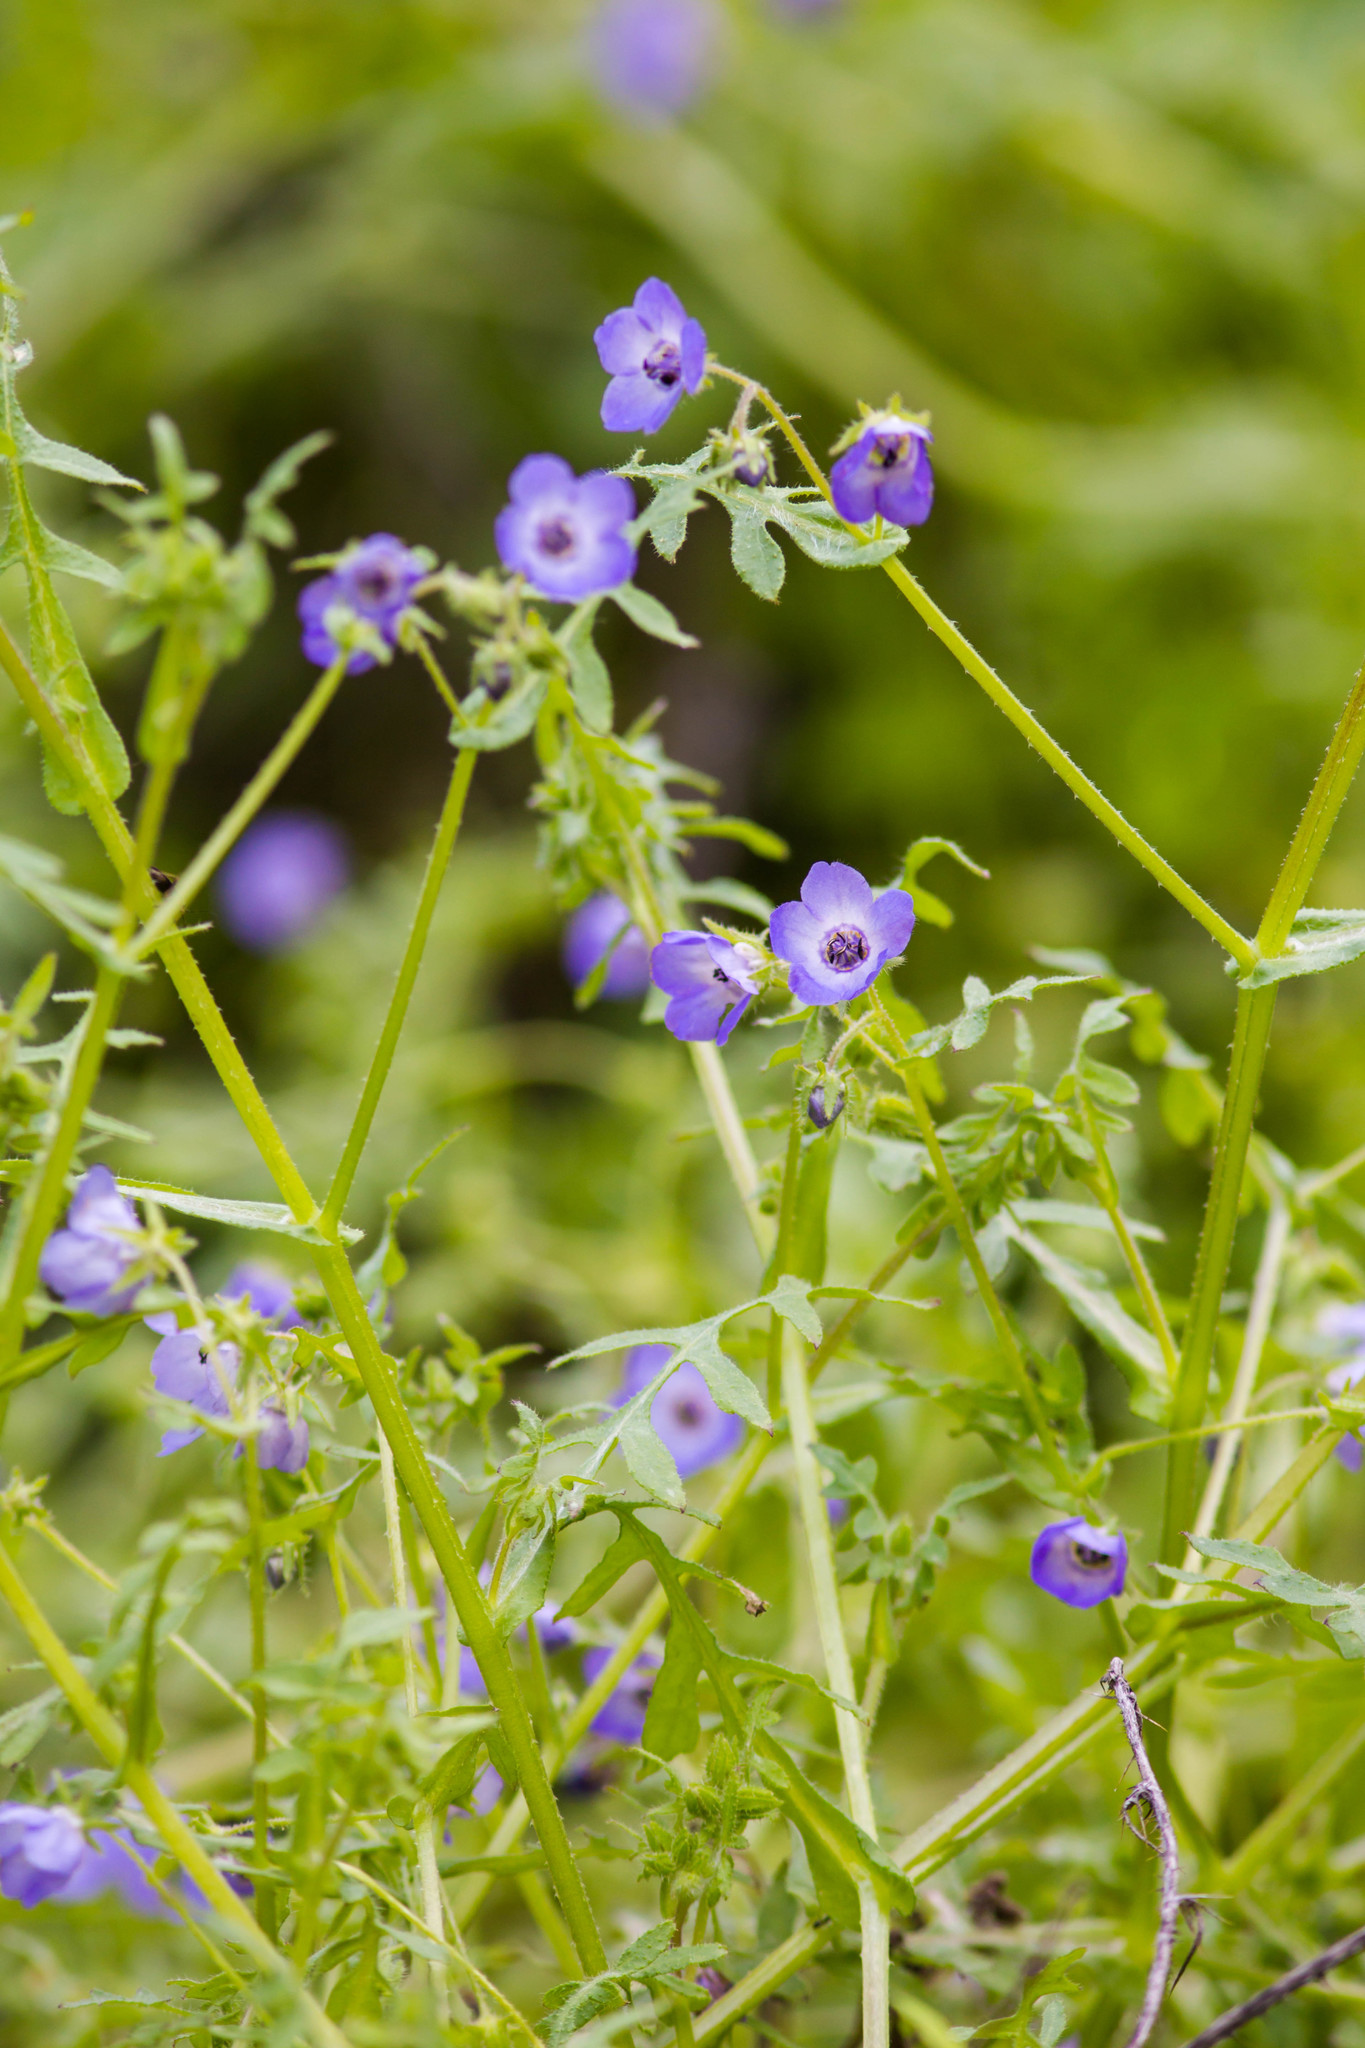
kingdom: Plantae
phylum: Tracheophyta
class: Magnoliopsida
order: Boraginales
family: Hydrophyllaceae
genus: Pholistoma
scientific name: Pholistoma auritum
